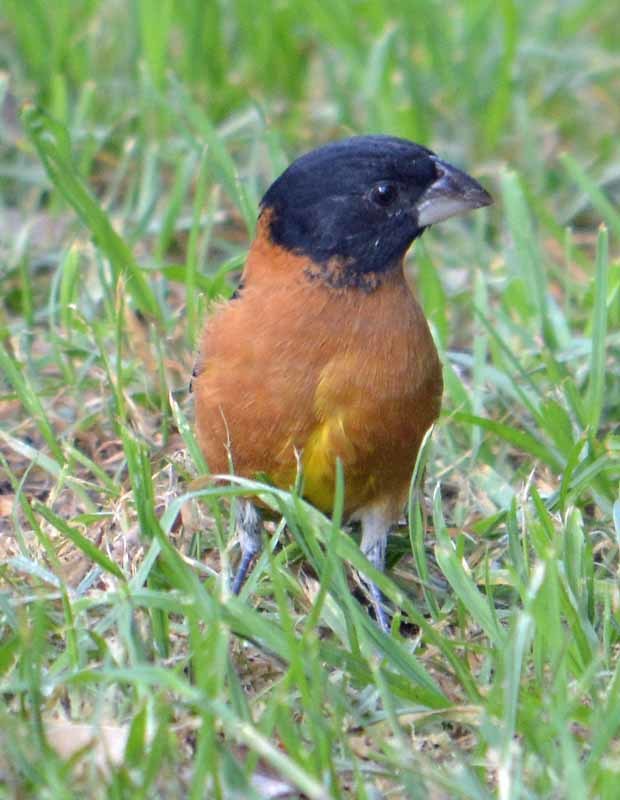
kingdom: Animalia
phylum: Chordata
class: Aves
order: Passeriformes
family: Cardinalidae
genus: Pheucticus
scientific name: Pheucticus melanocephalus
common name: Black-headed grosbeak
